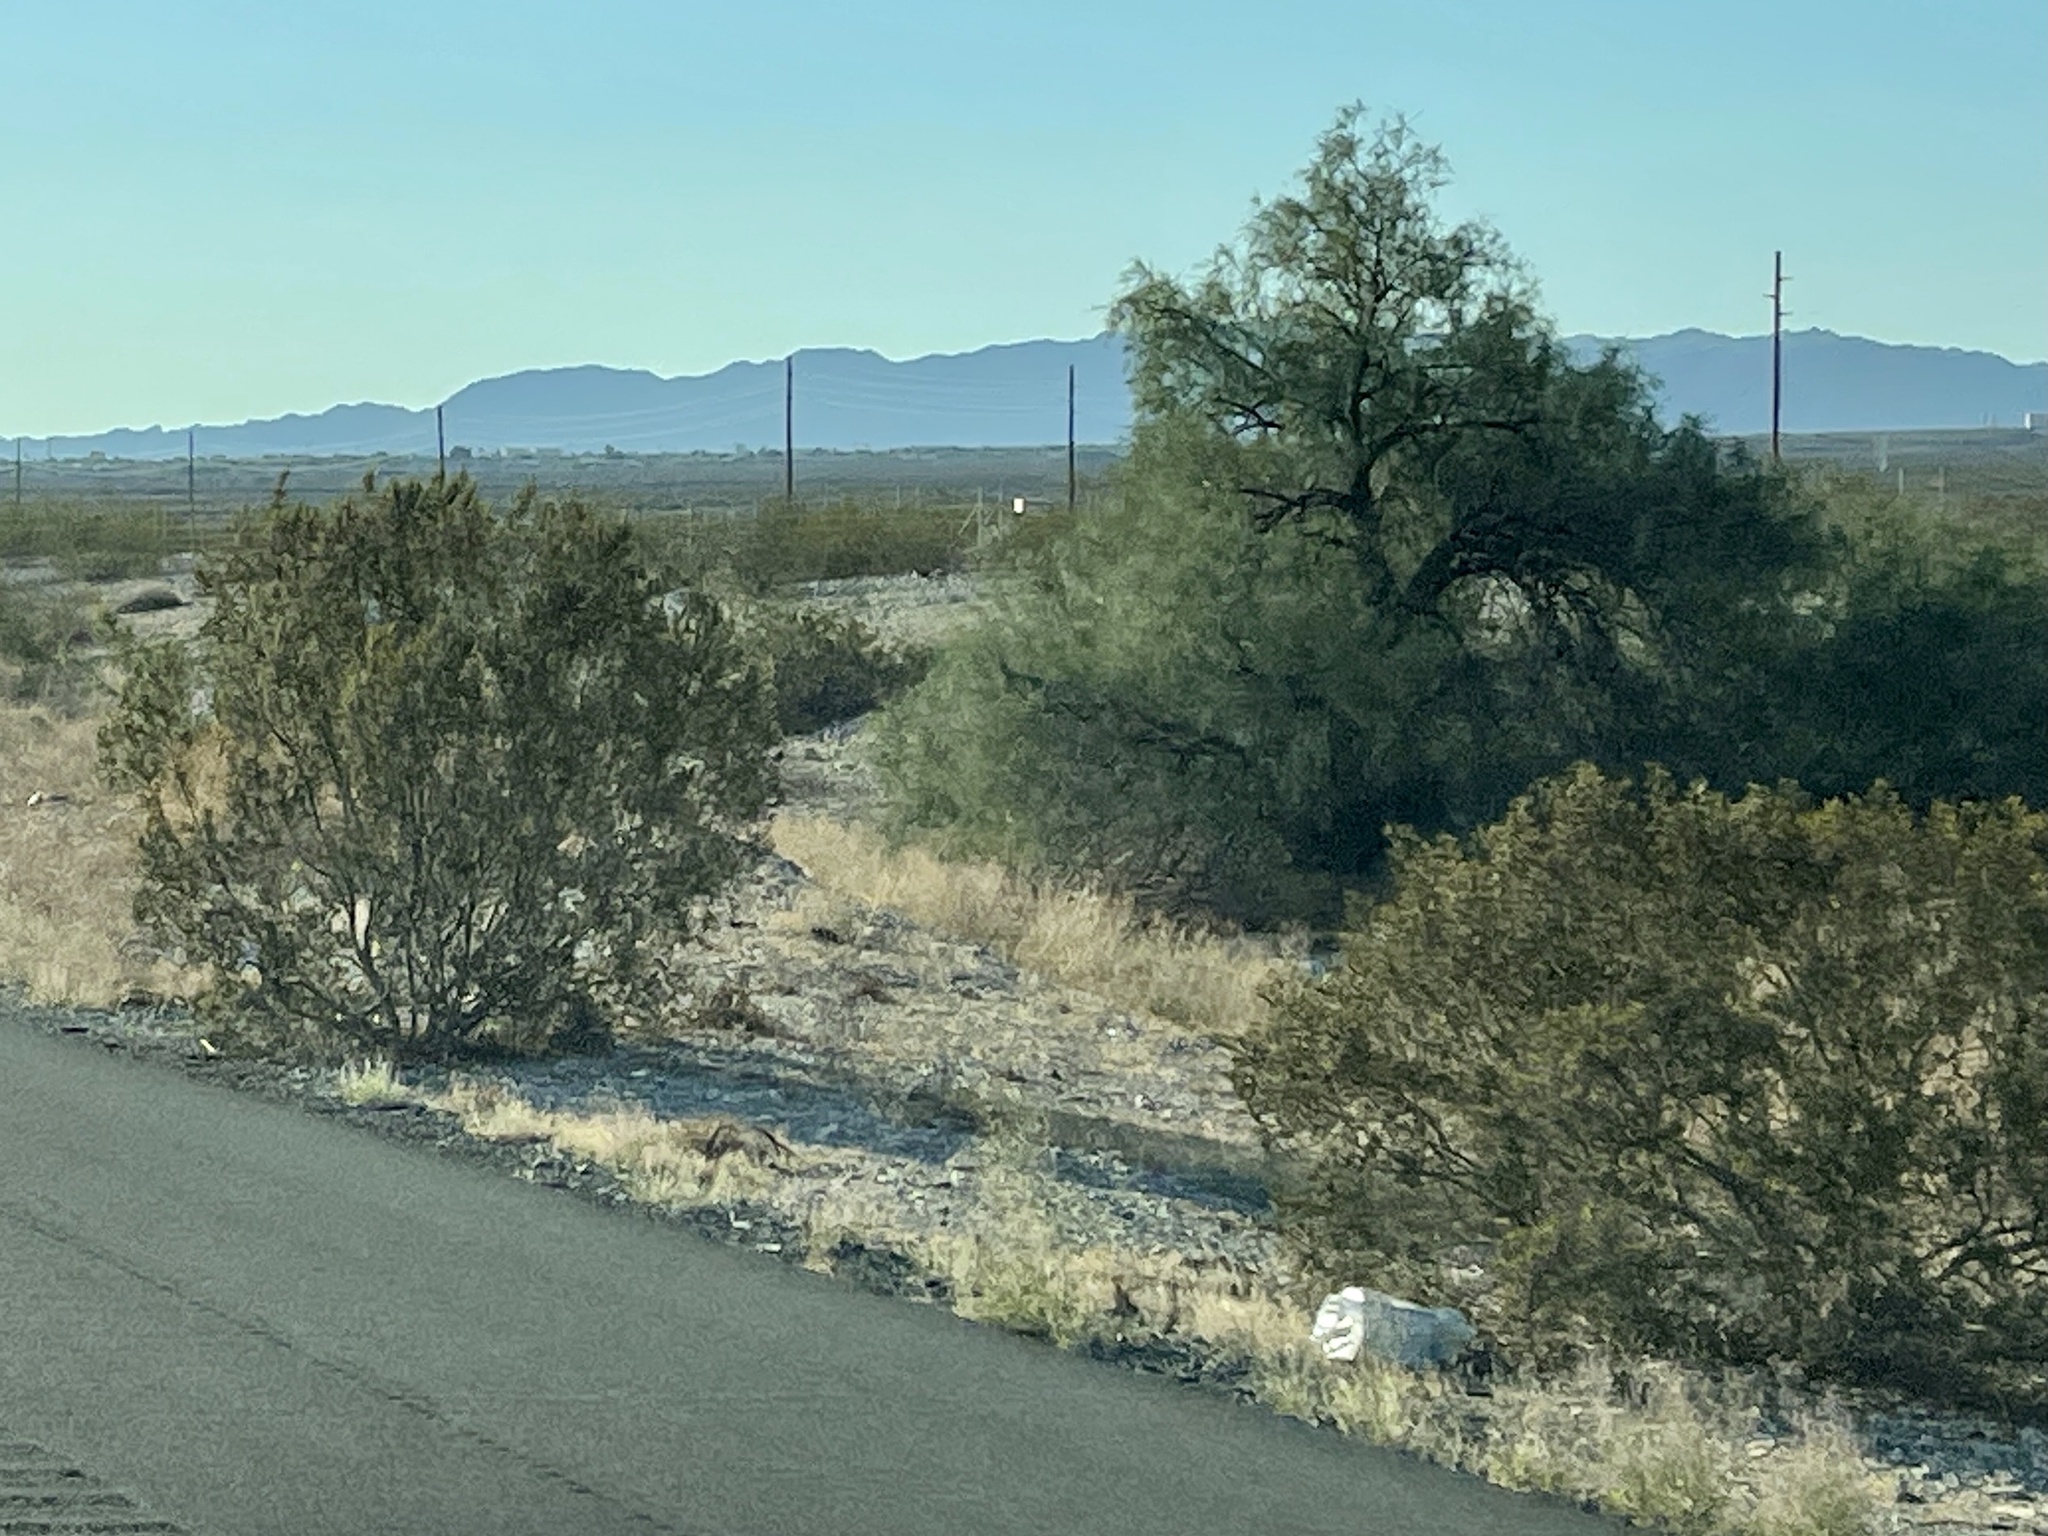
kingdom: Plantae
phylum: Tracheophyta
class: Magnoliopsida
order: Zygophyllales
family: Zygophyllaceae
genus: Larrea
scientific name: Larrea tridentata
